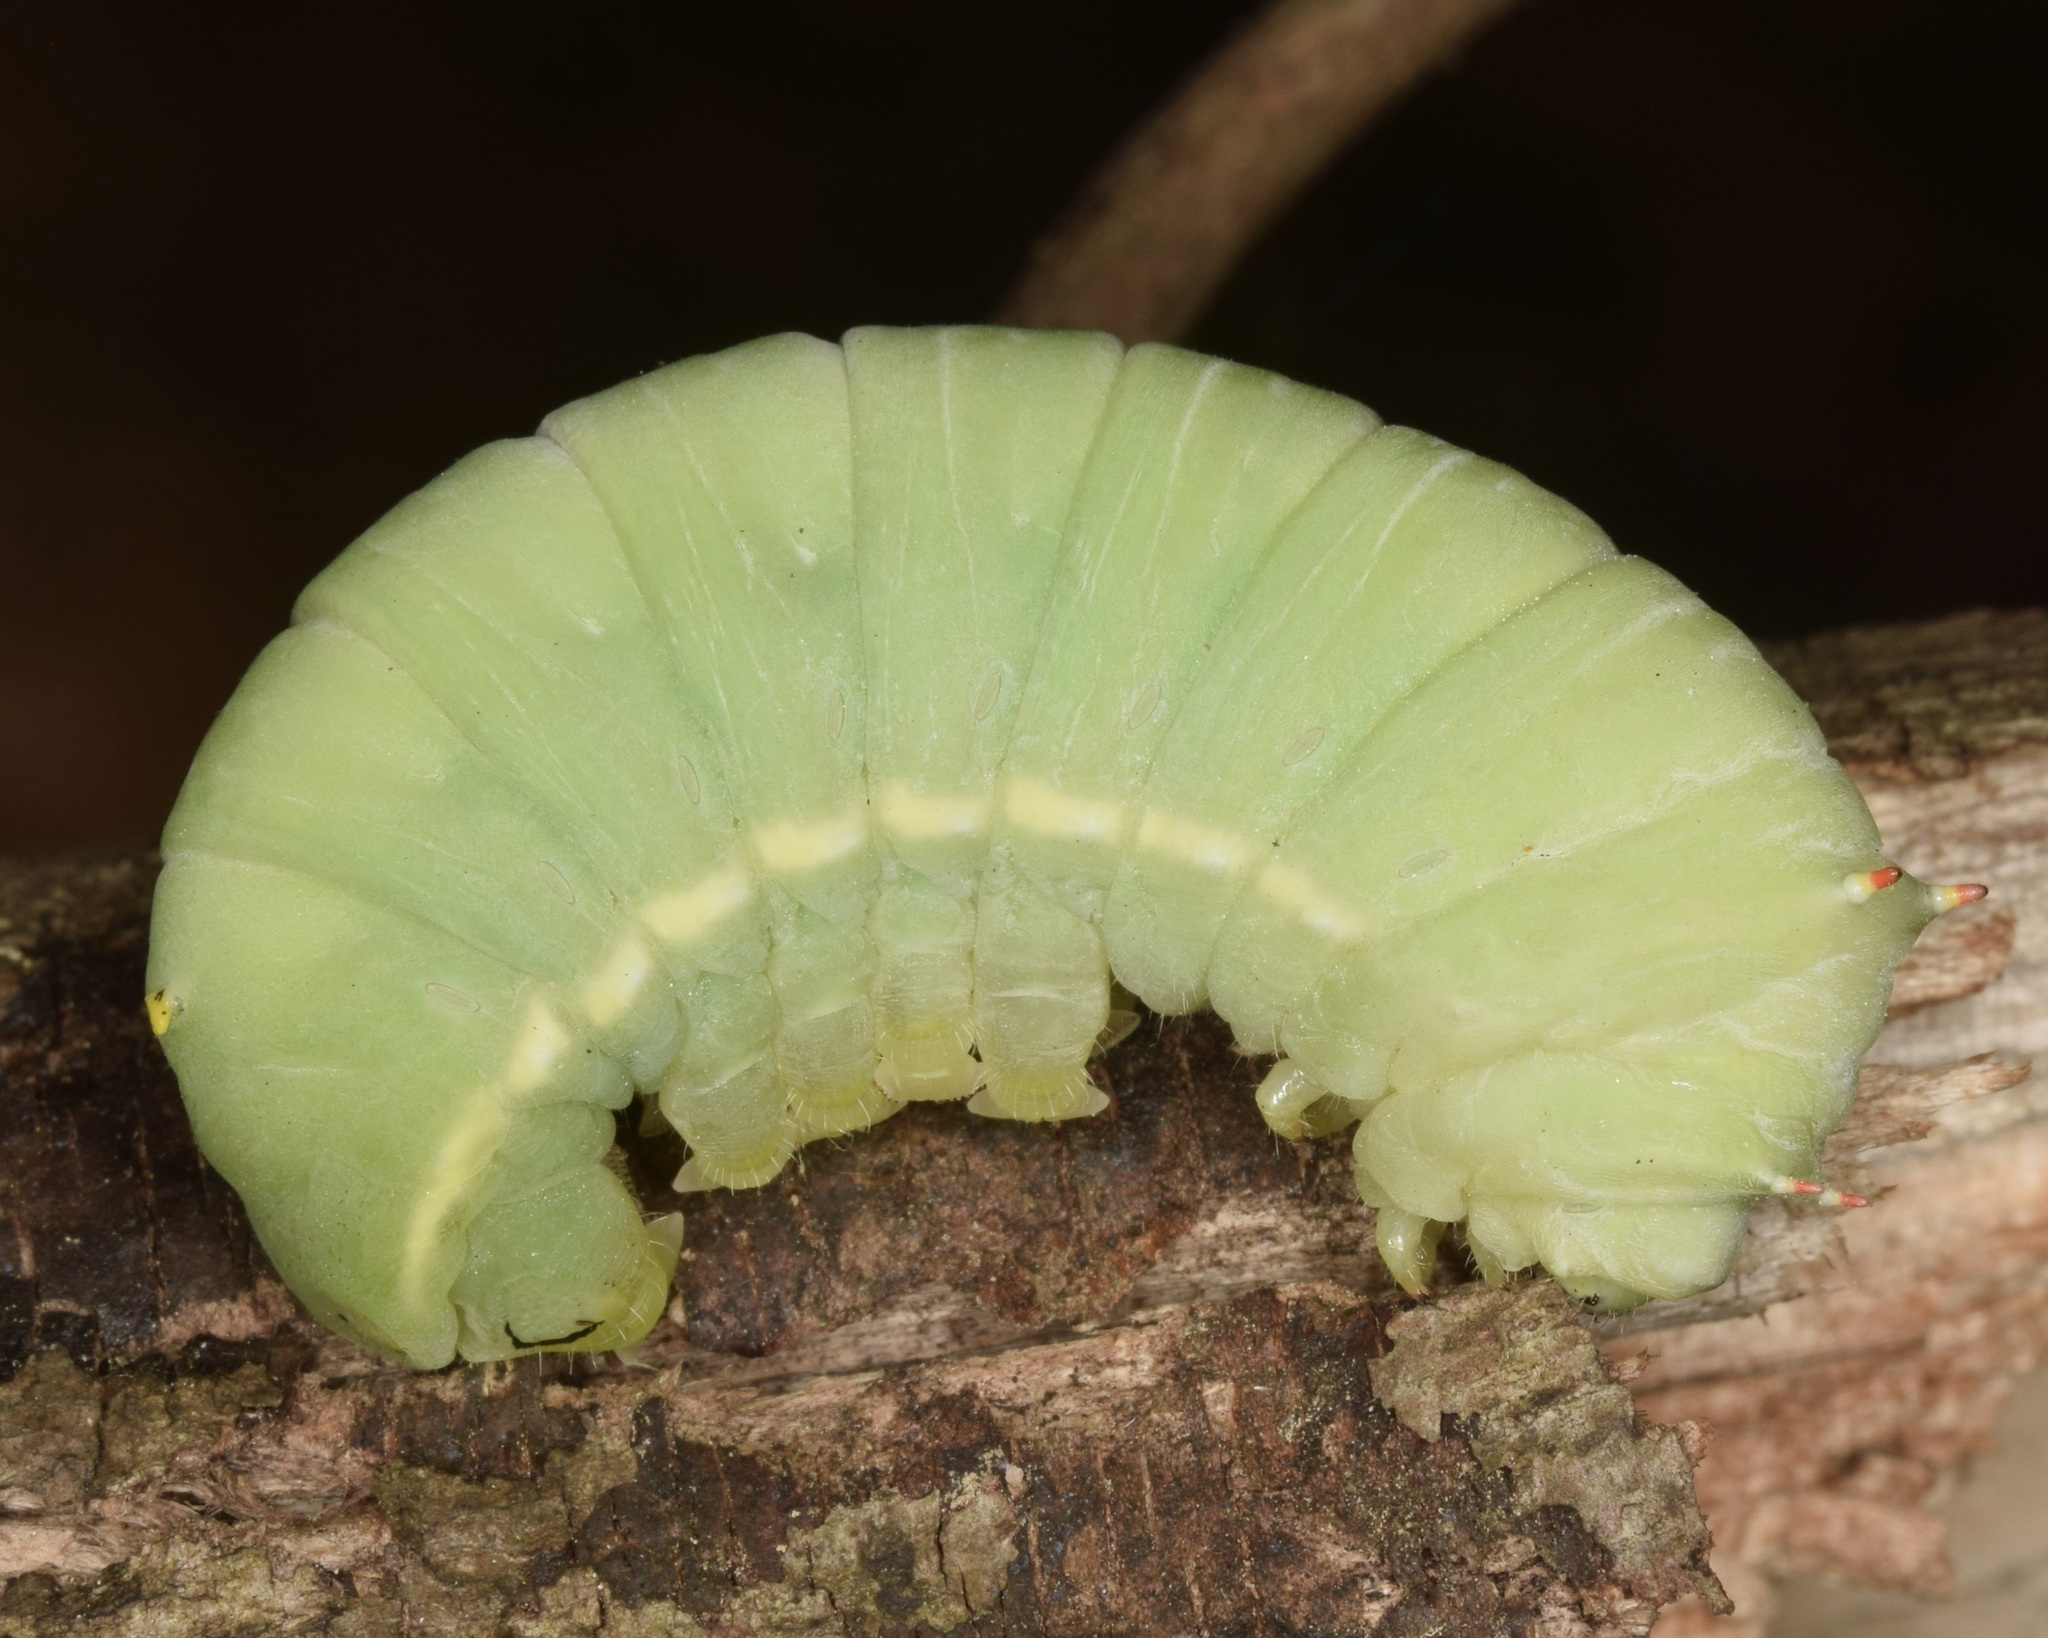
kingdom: Animalia
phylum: Arthropoda
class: Insecta
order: Lepidoptera
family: Saturniidae
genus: Callosamia
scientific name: Callosamia angulifera
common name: Tulip tree silkmoth
